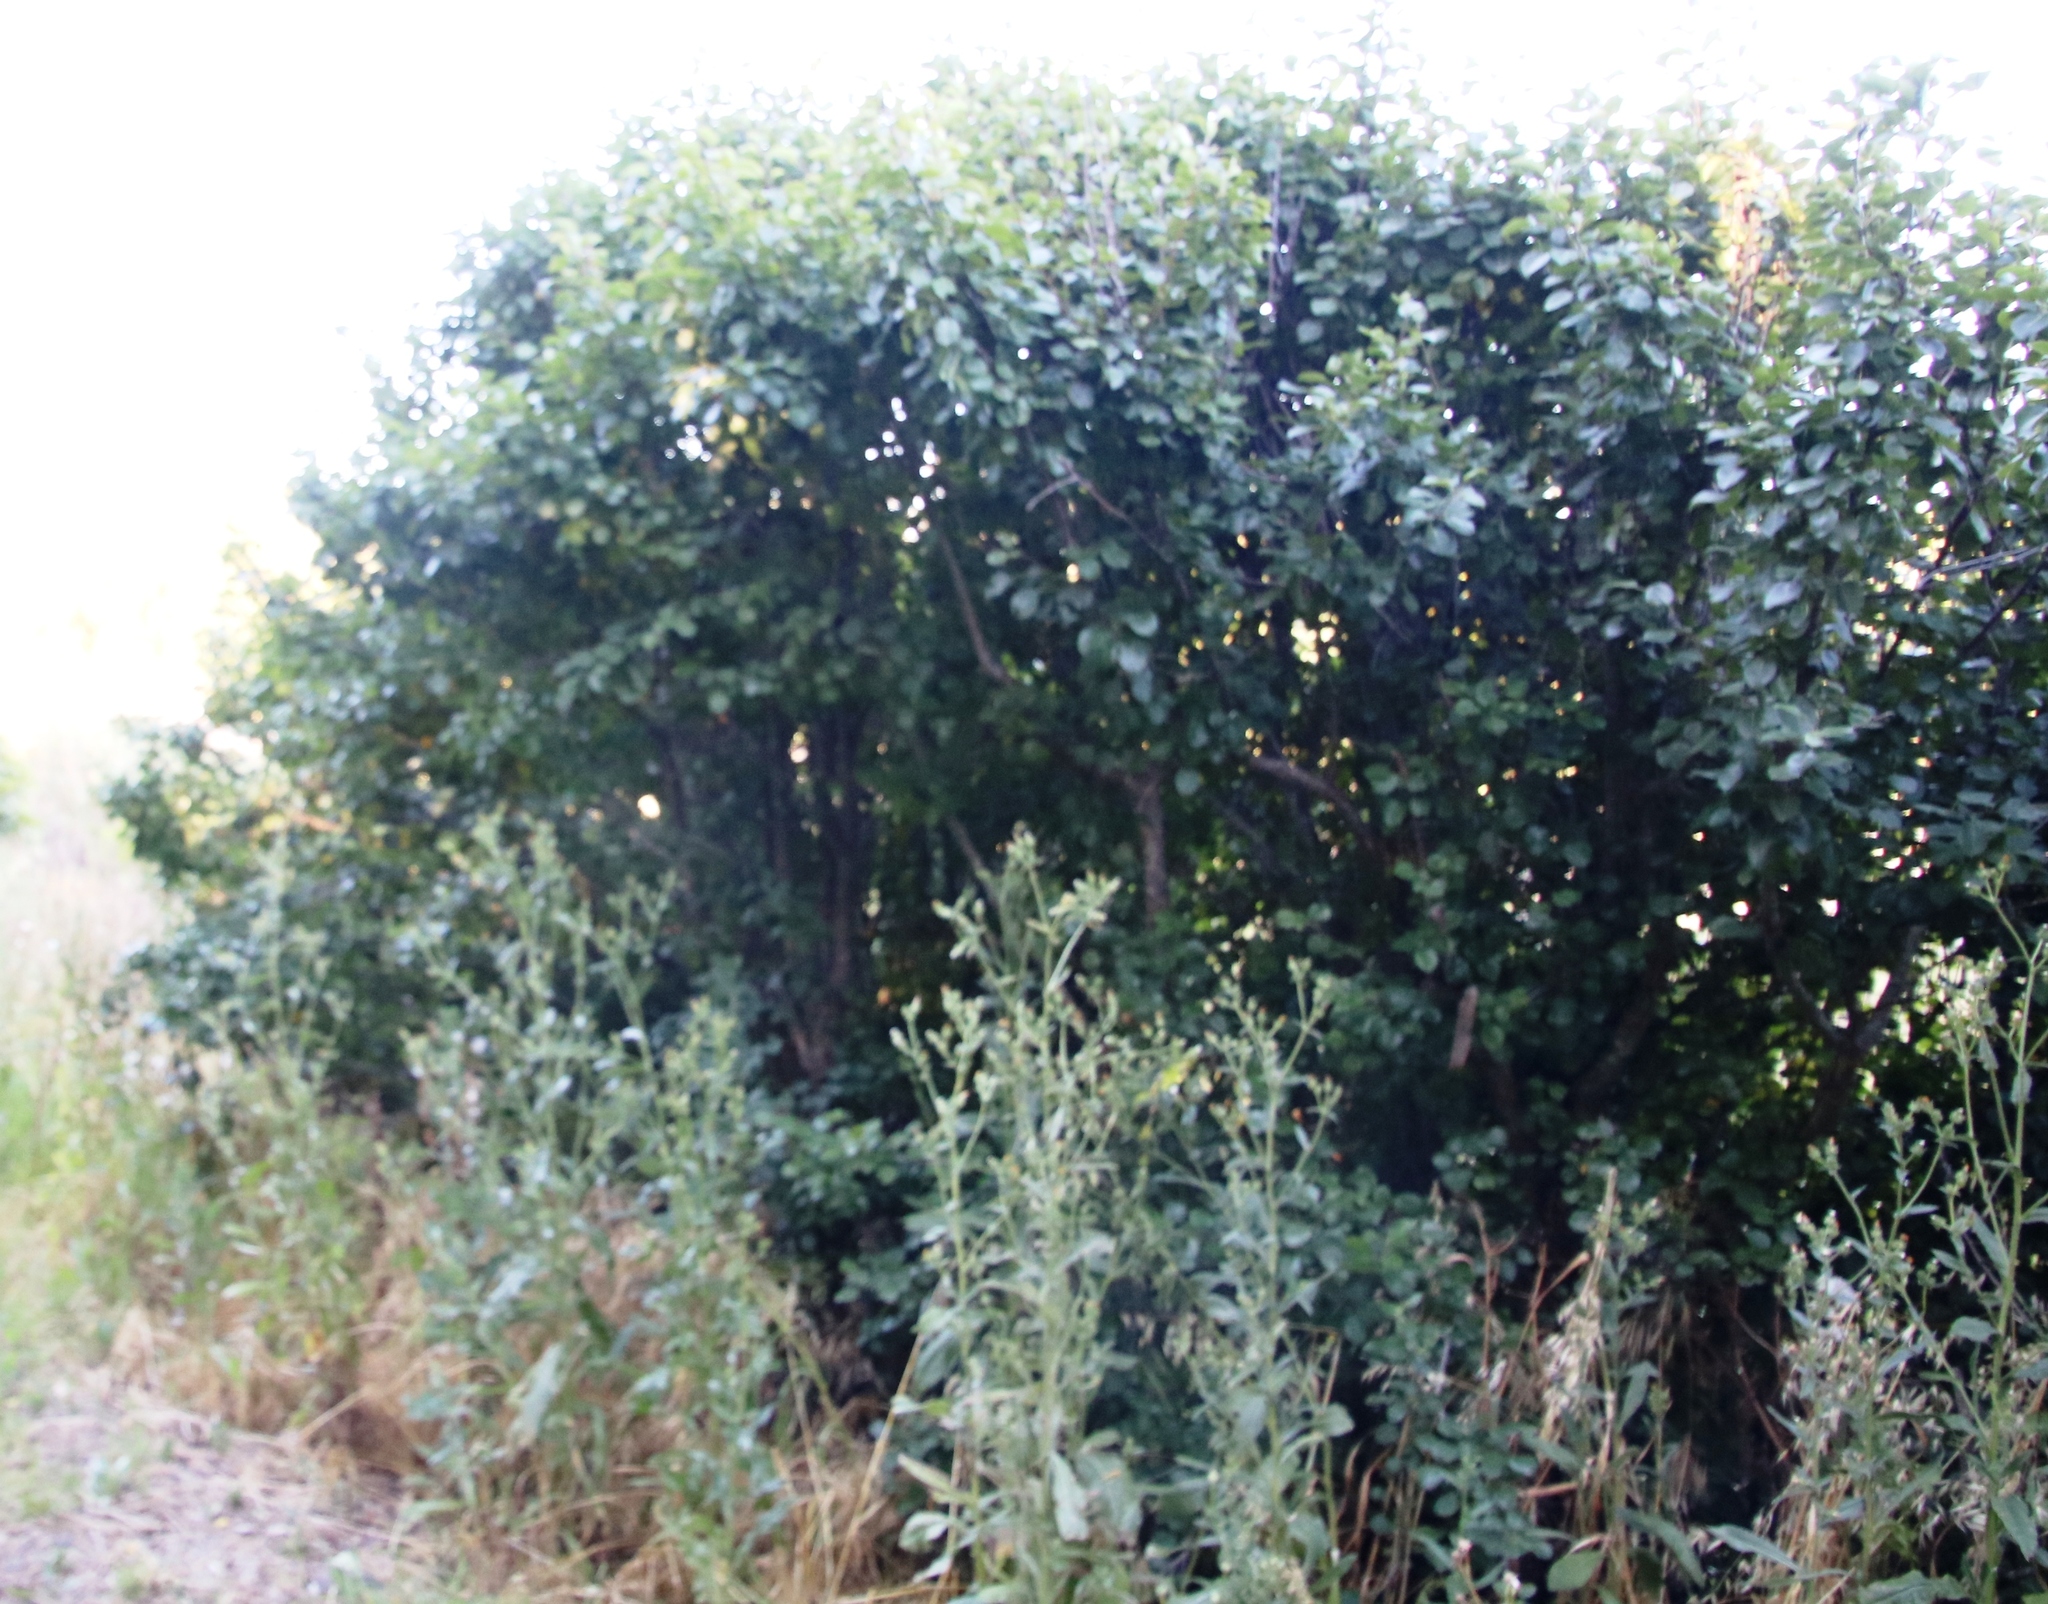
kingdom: Plantae
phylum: Tracheophyta
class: Magnoliopsida
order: Rosales
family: Rosaceae
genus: Pyrus
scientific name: Pyrus communis
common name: Pear
